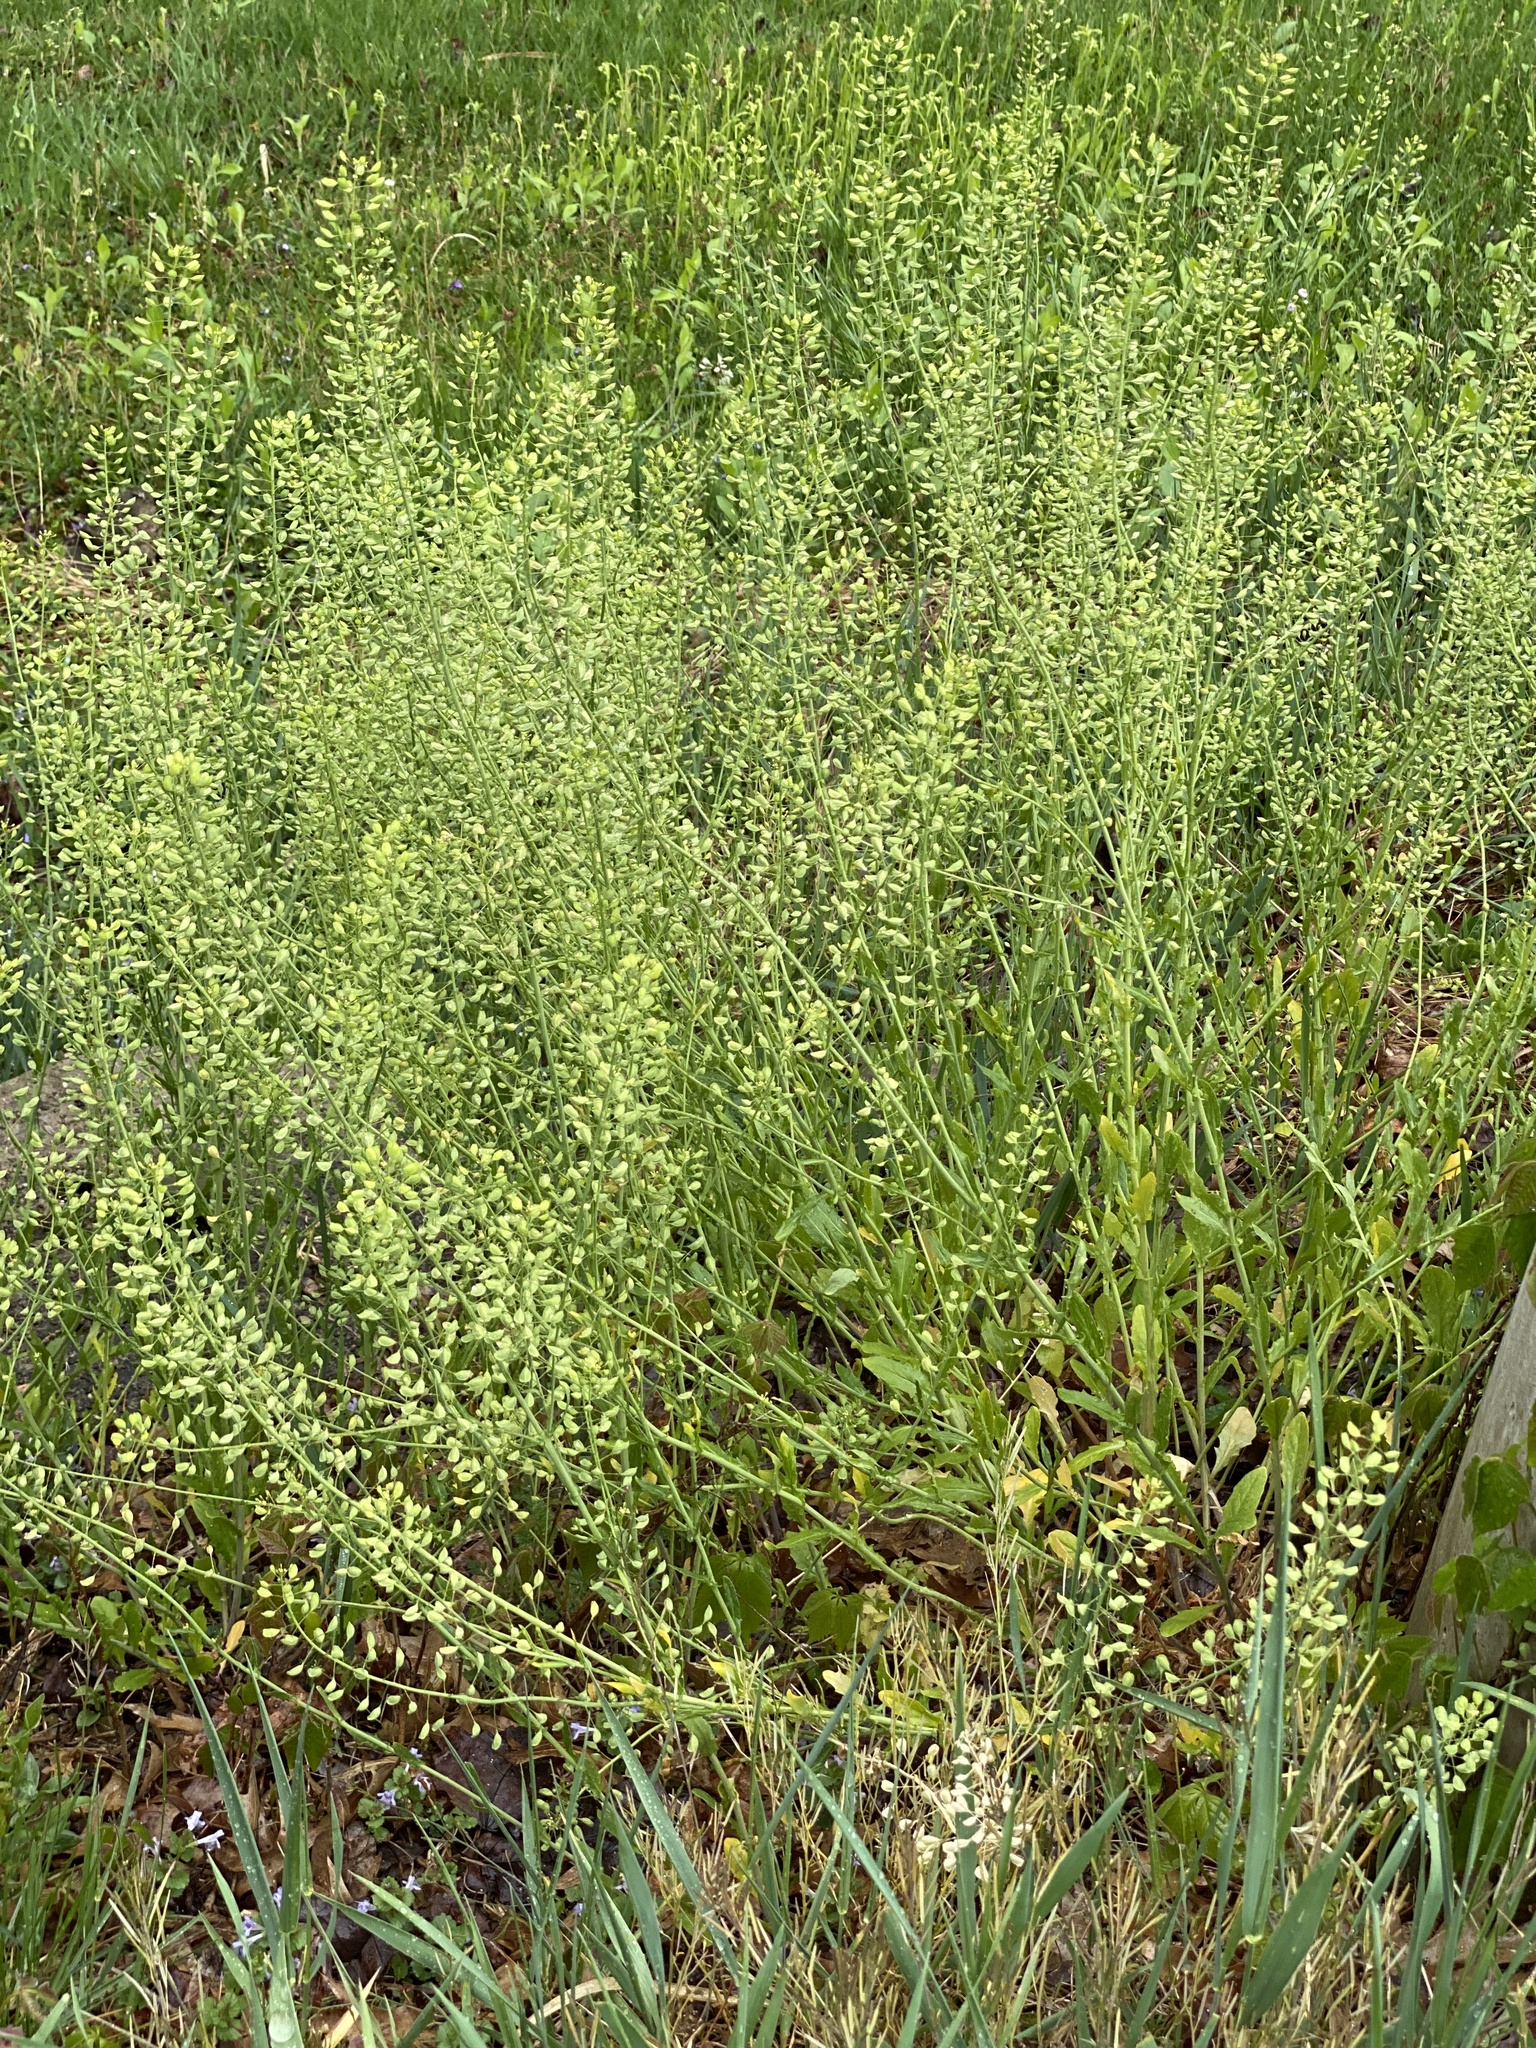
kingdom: Plantae
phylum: Tracheophyta
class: Magnoliopsida
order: Brassicales
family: Brassicaceae
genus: Mummenhoffia
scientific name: Mummenhoffia alliacea
